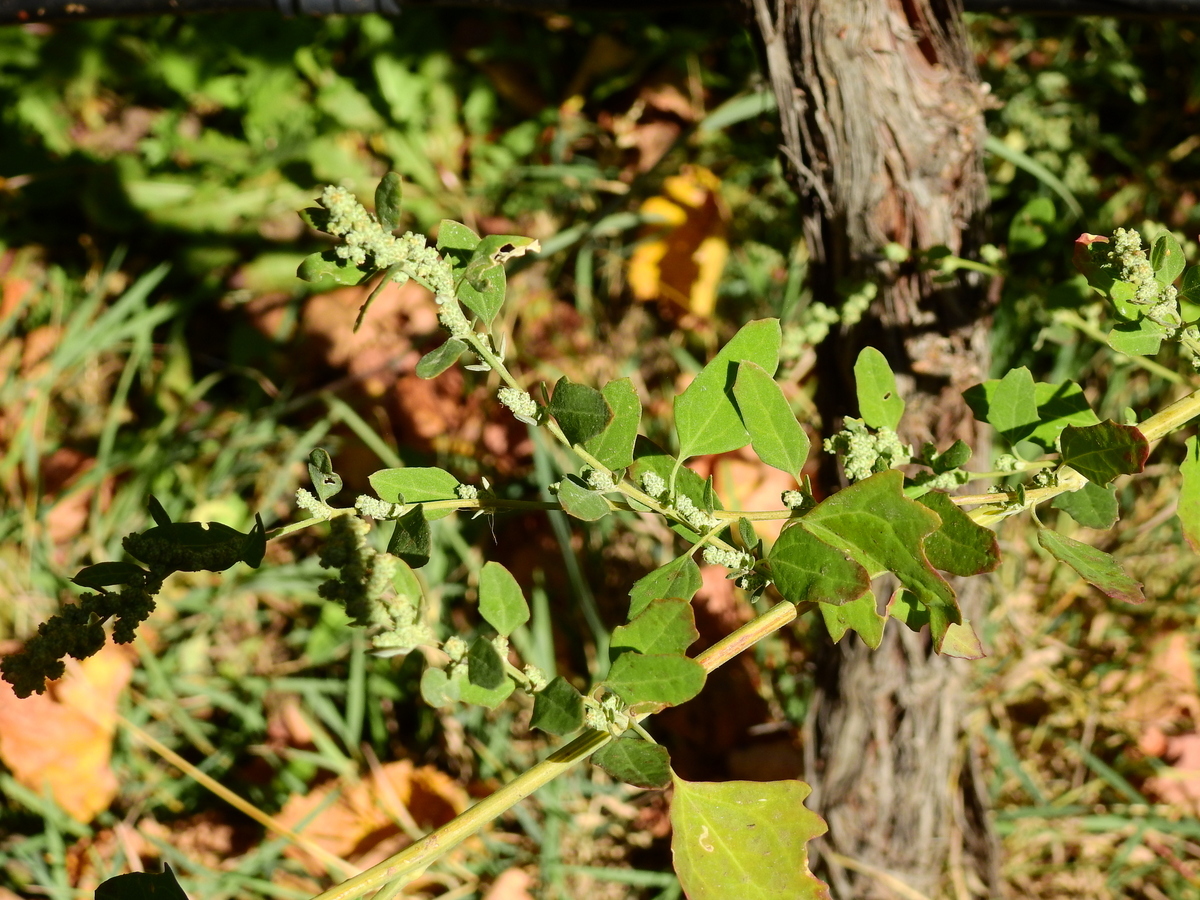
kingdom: Plantae
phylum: Tracheophyta
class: Magnoliopsida
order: Caryophyllales
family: Amaranthaceae
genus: Chenopodium
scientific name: Chenopodium album
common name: Fat-hen
